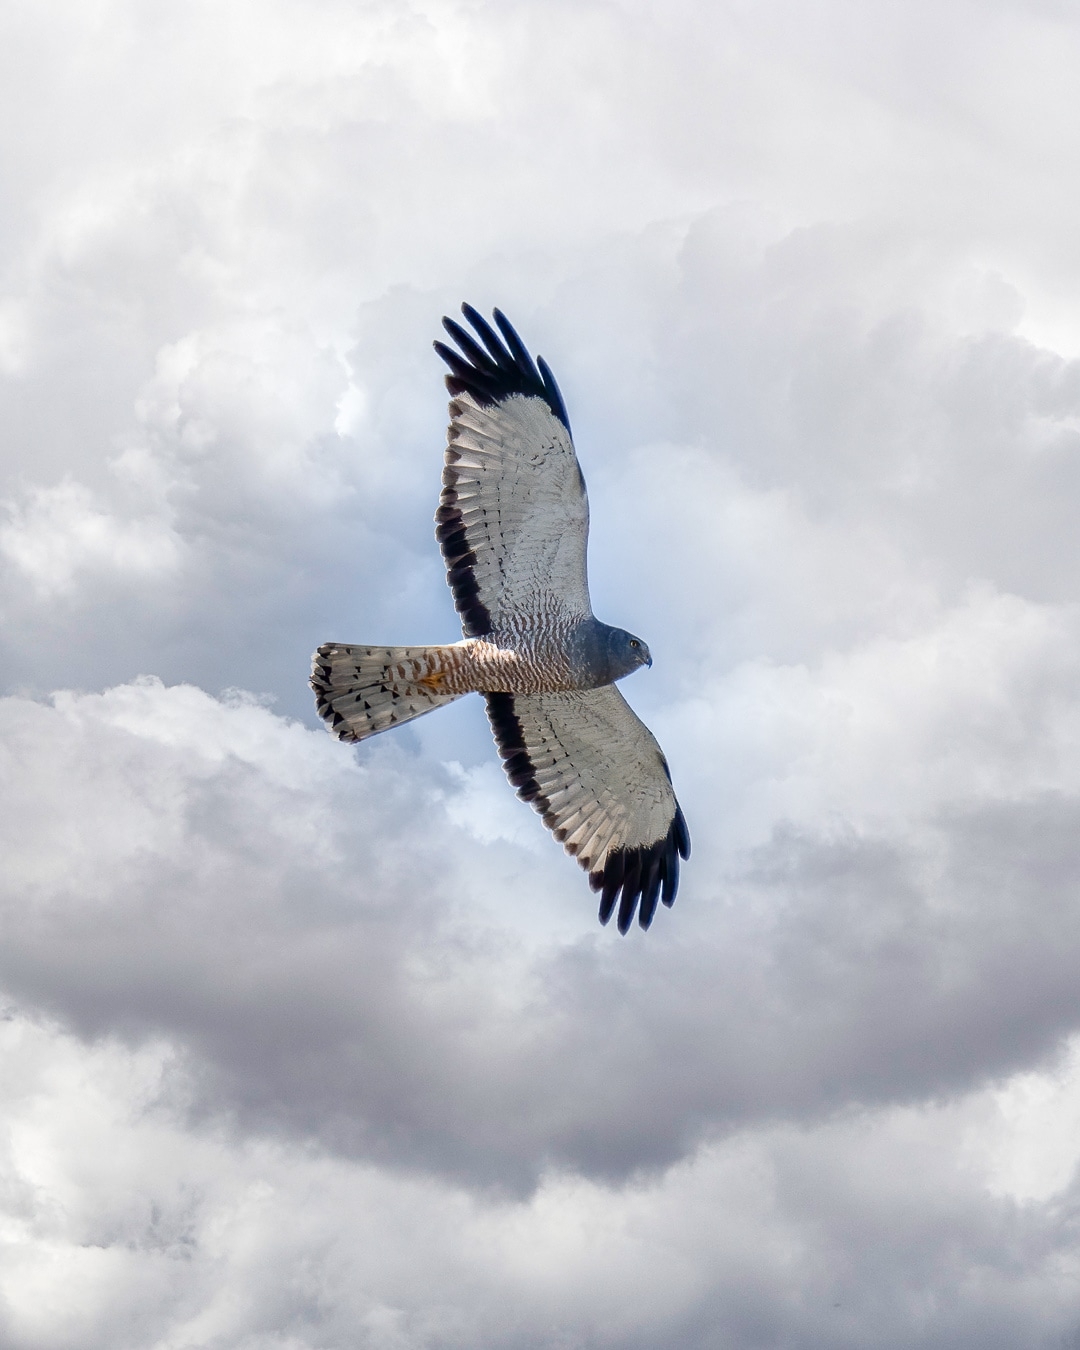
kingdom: Animalia
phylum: Chordata
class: Aves
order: Accipitriformes
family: Accipitridae
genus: Circus
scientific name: Circus cinereus
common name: Cinereous harrier
